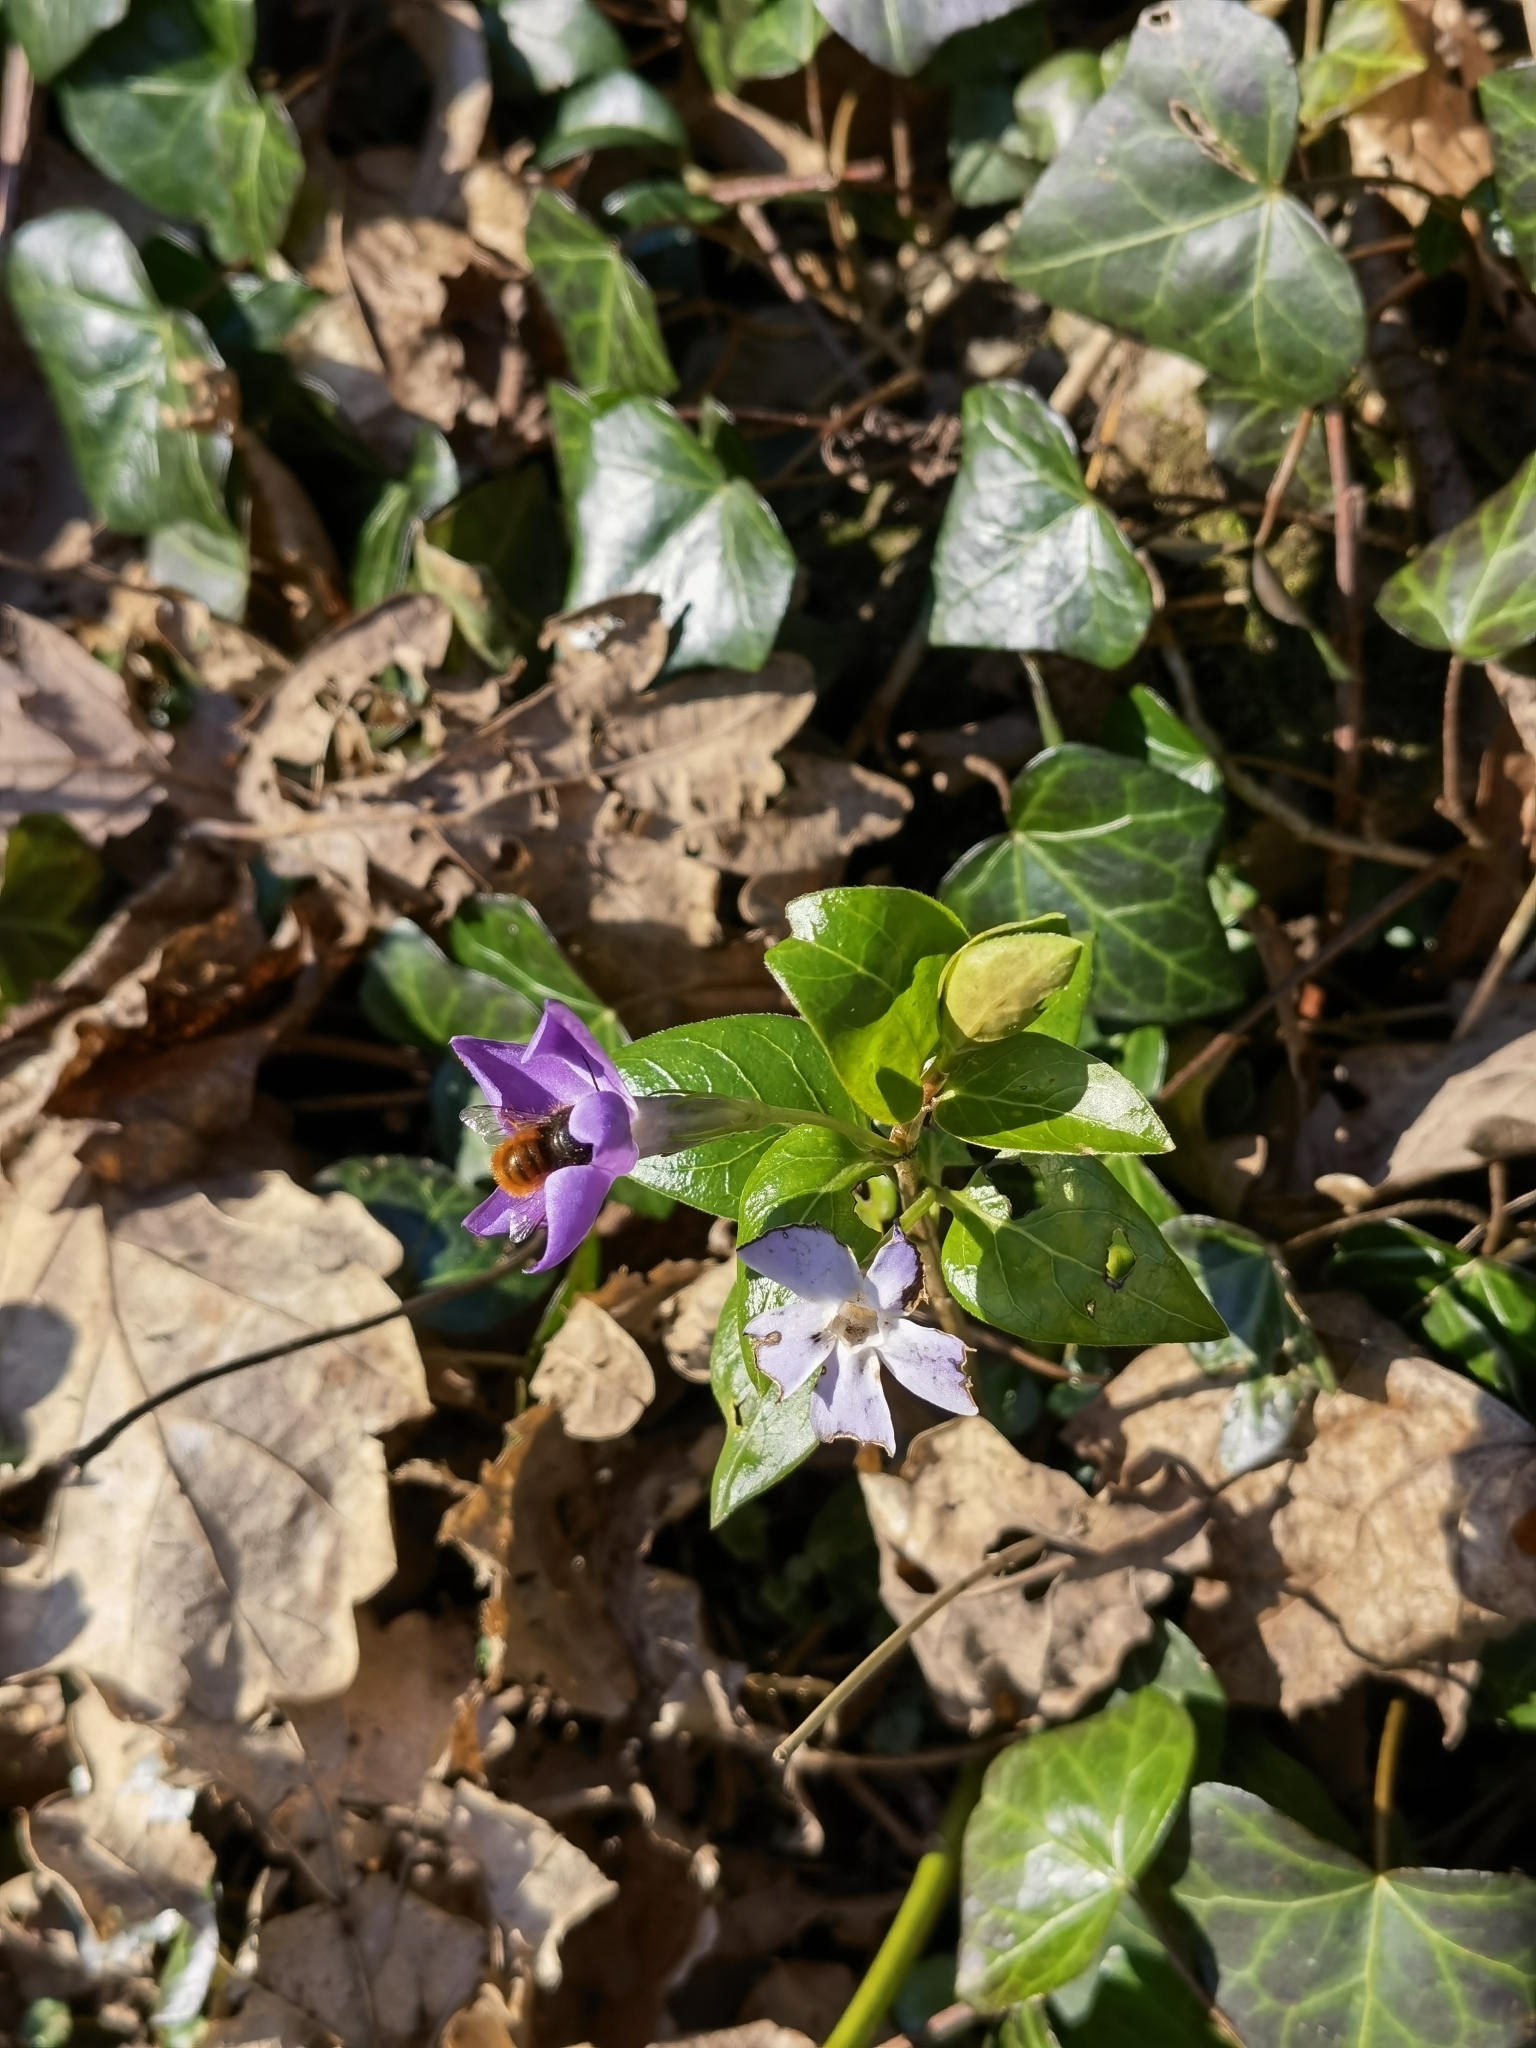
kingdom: Animalia
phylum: Arthropoda
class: Insecta
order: Hymenoptera
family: Megachilidae
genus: Osmia
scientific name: Osmia cornuta
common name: Mason bee
